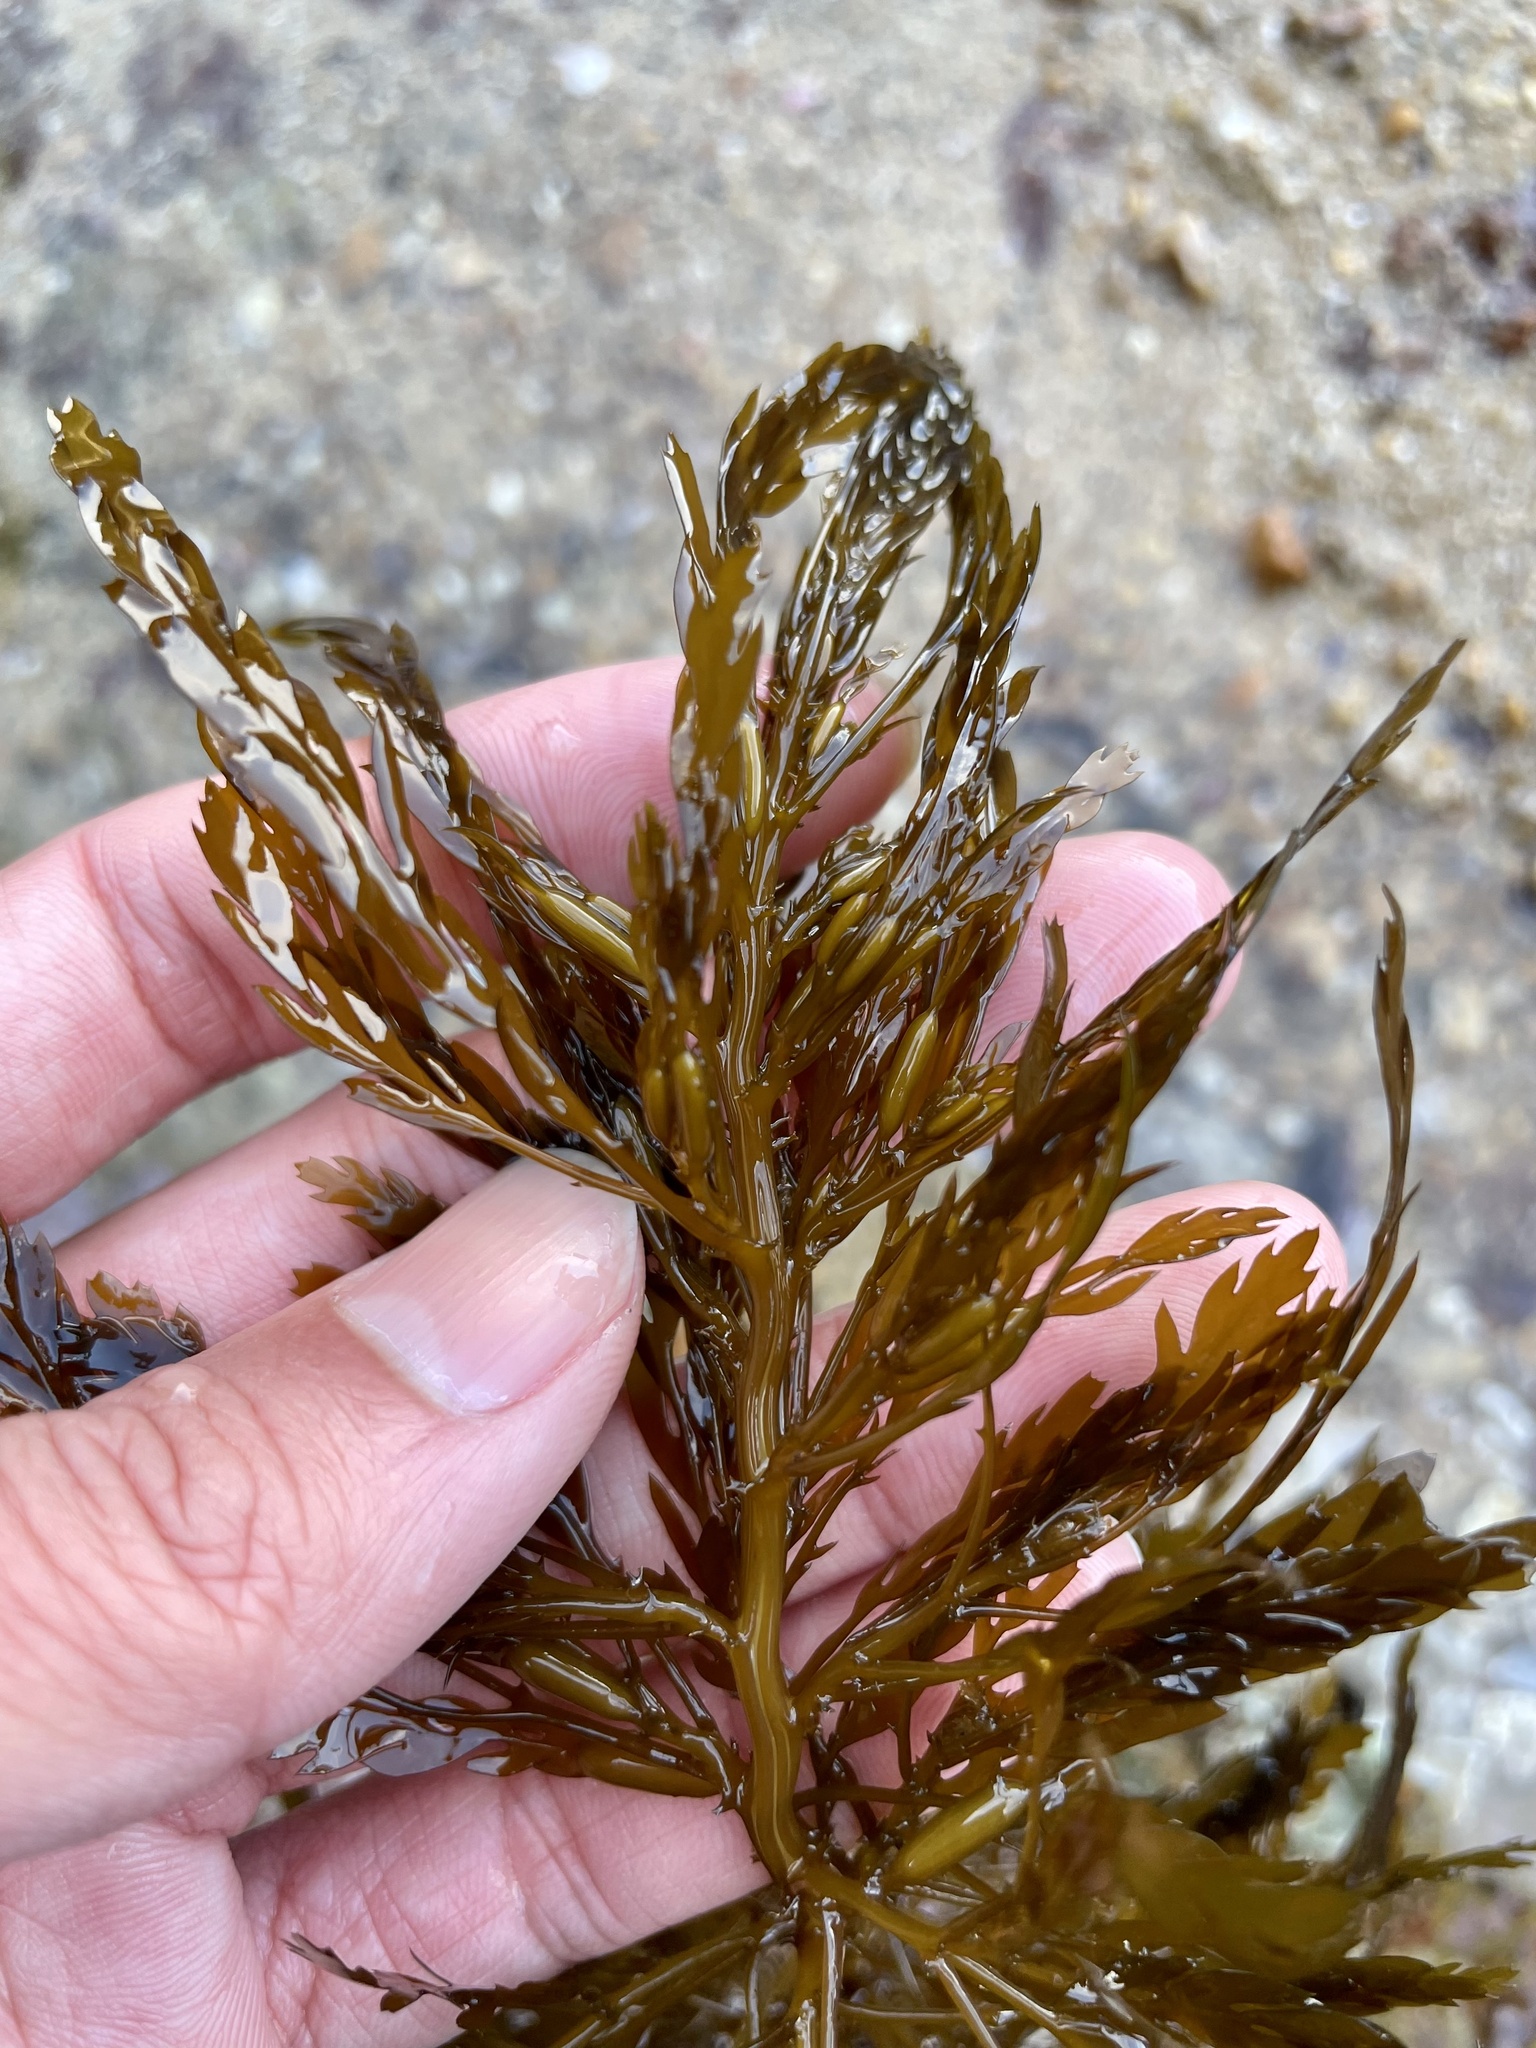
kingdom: Chromista
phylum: Ochrophyta
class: Phaeophyceae
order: Fucales
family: Sargassaceae
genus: Sargassum
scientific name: Sargassum horneri
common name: Devil weed
